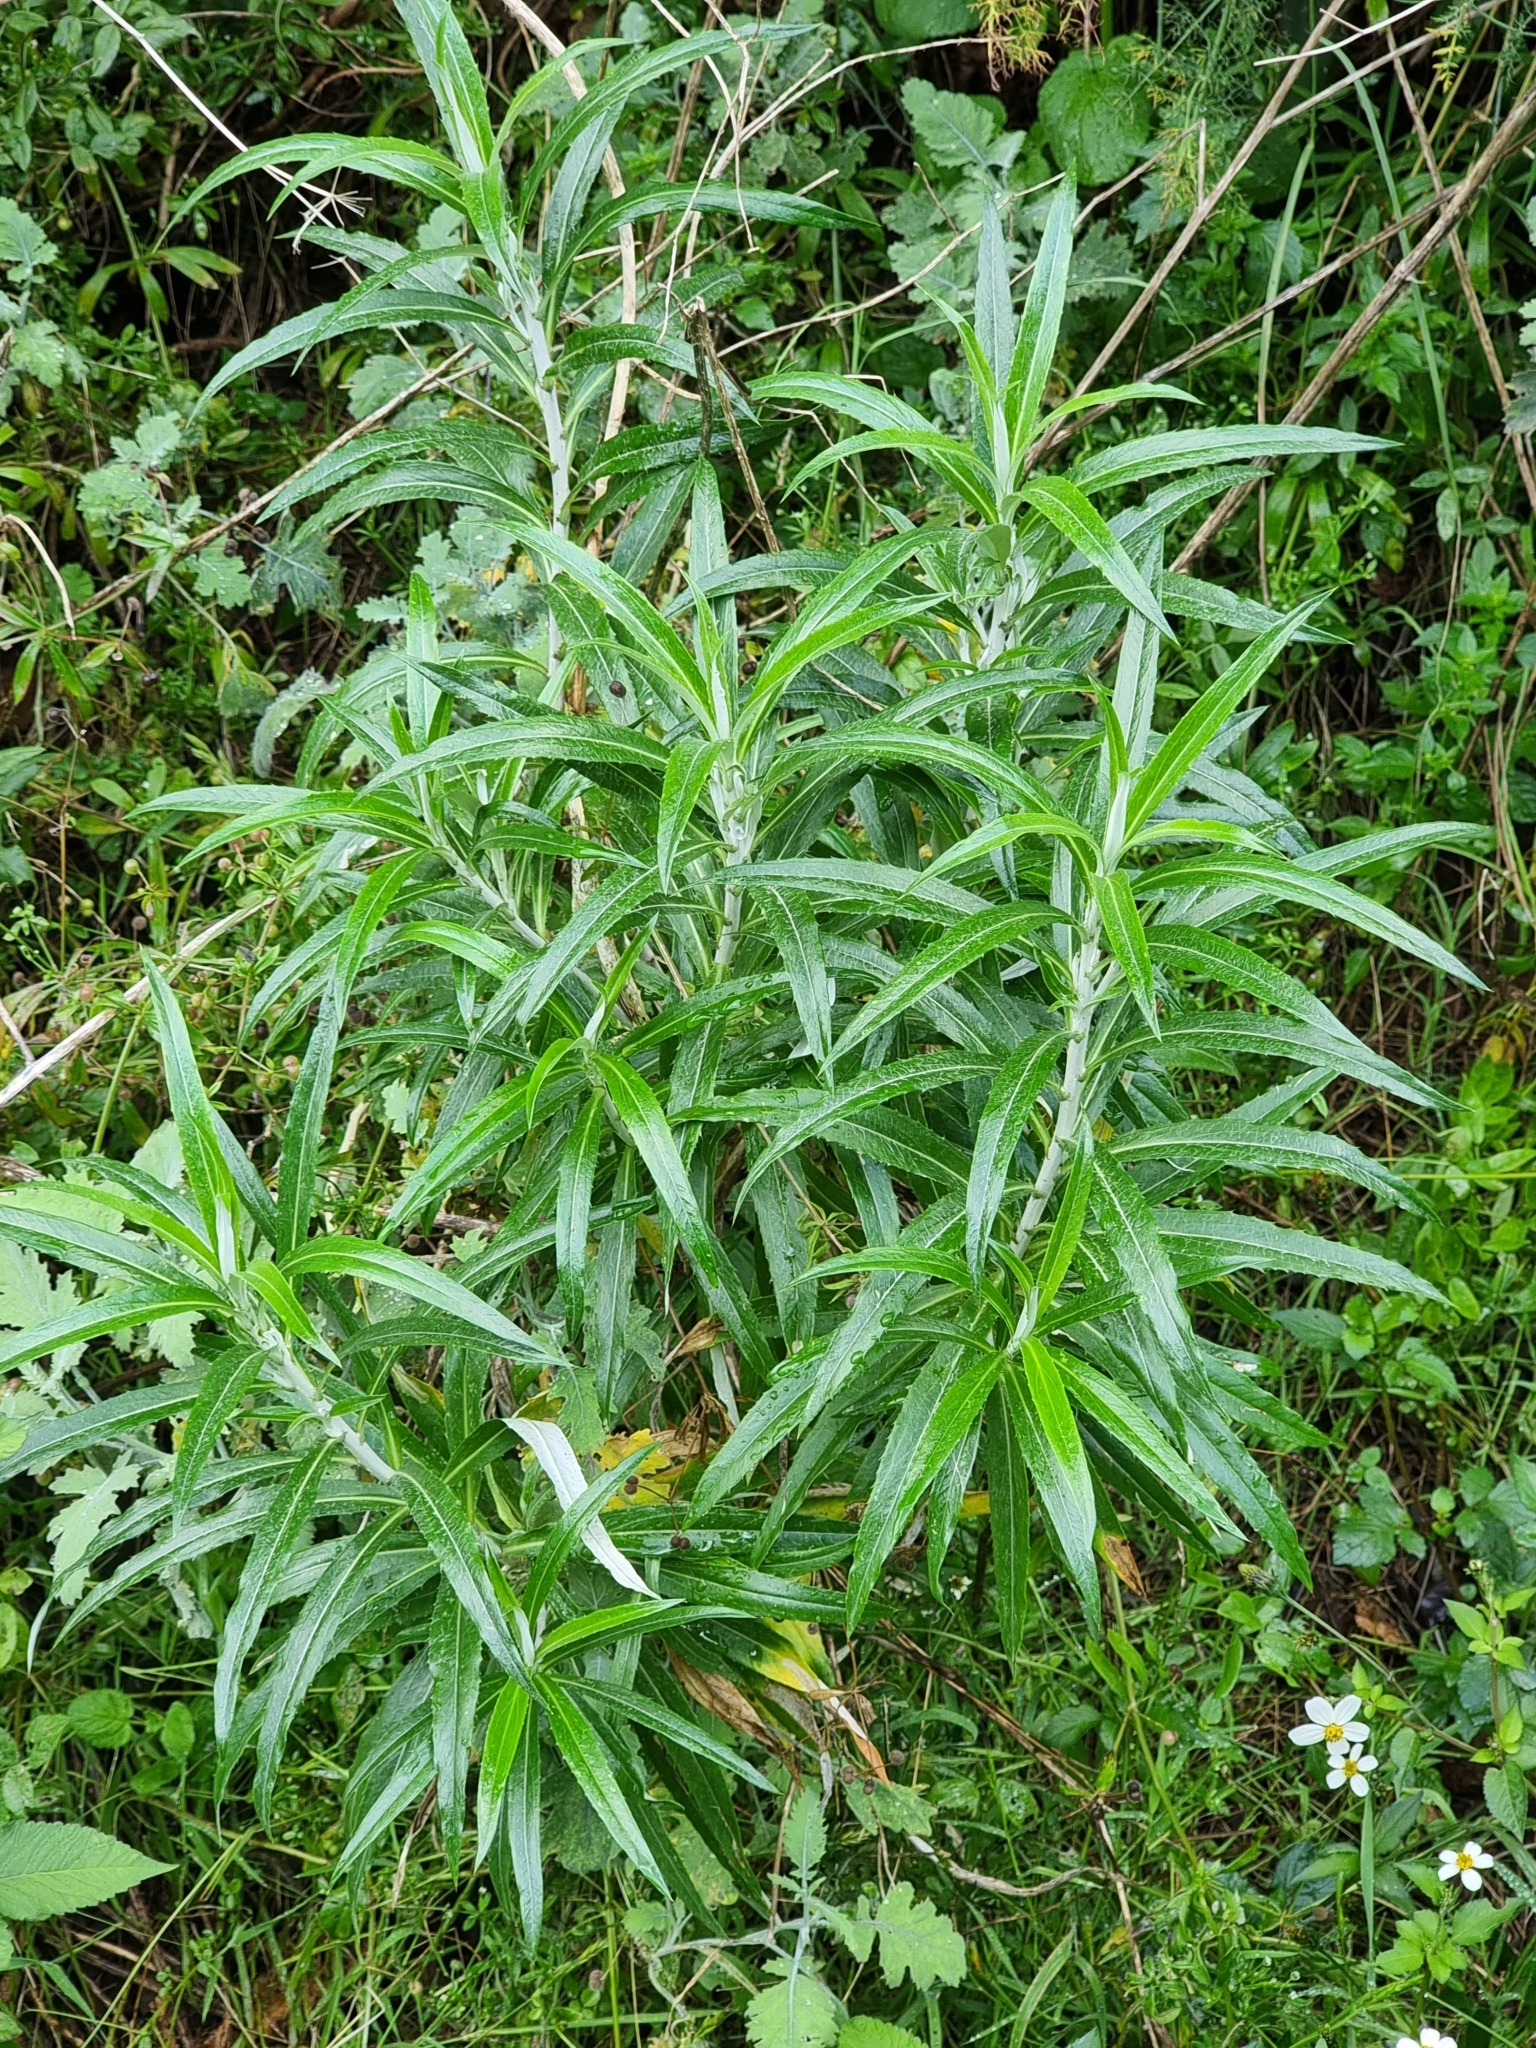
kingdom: Plantae
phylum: Tracheophyta
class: Magnoliopsida
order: Asterales
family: Asteraceae
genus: Carlina
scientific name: Carlina salicifolia
